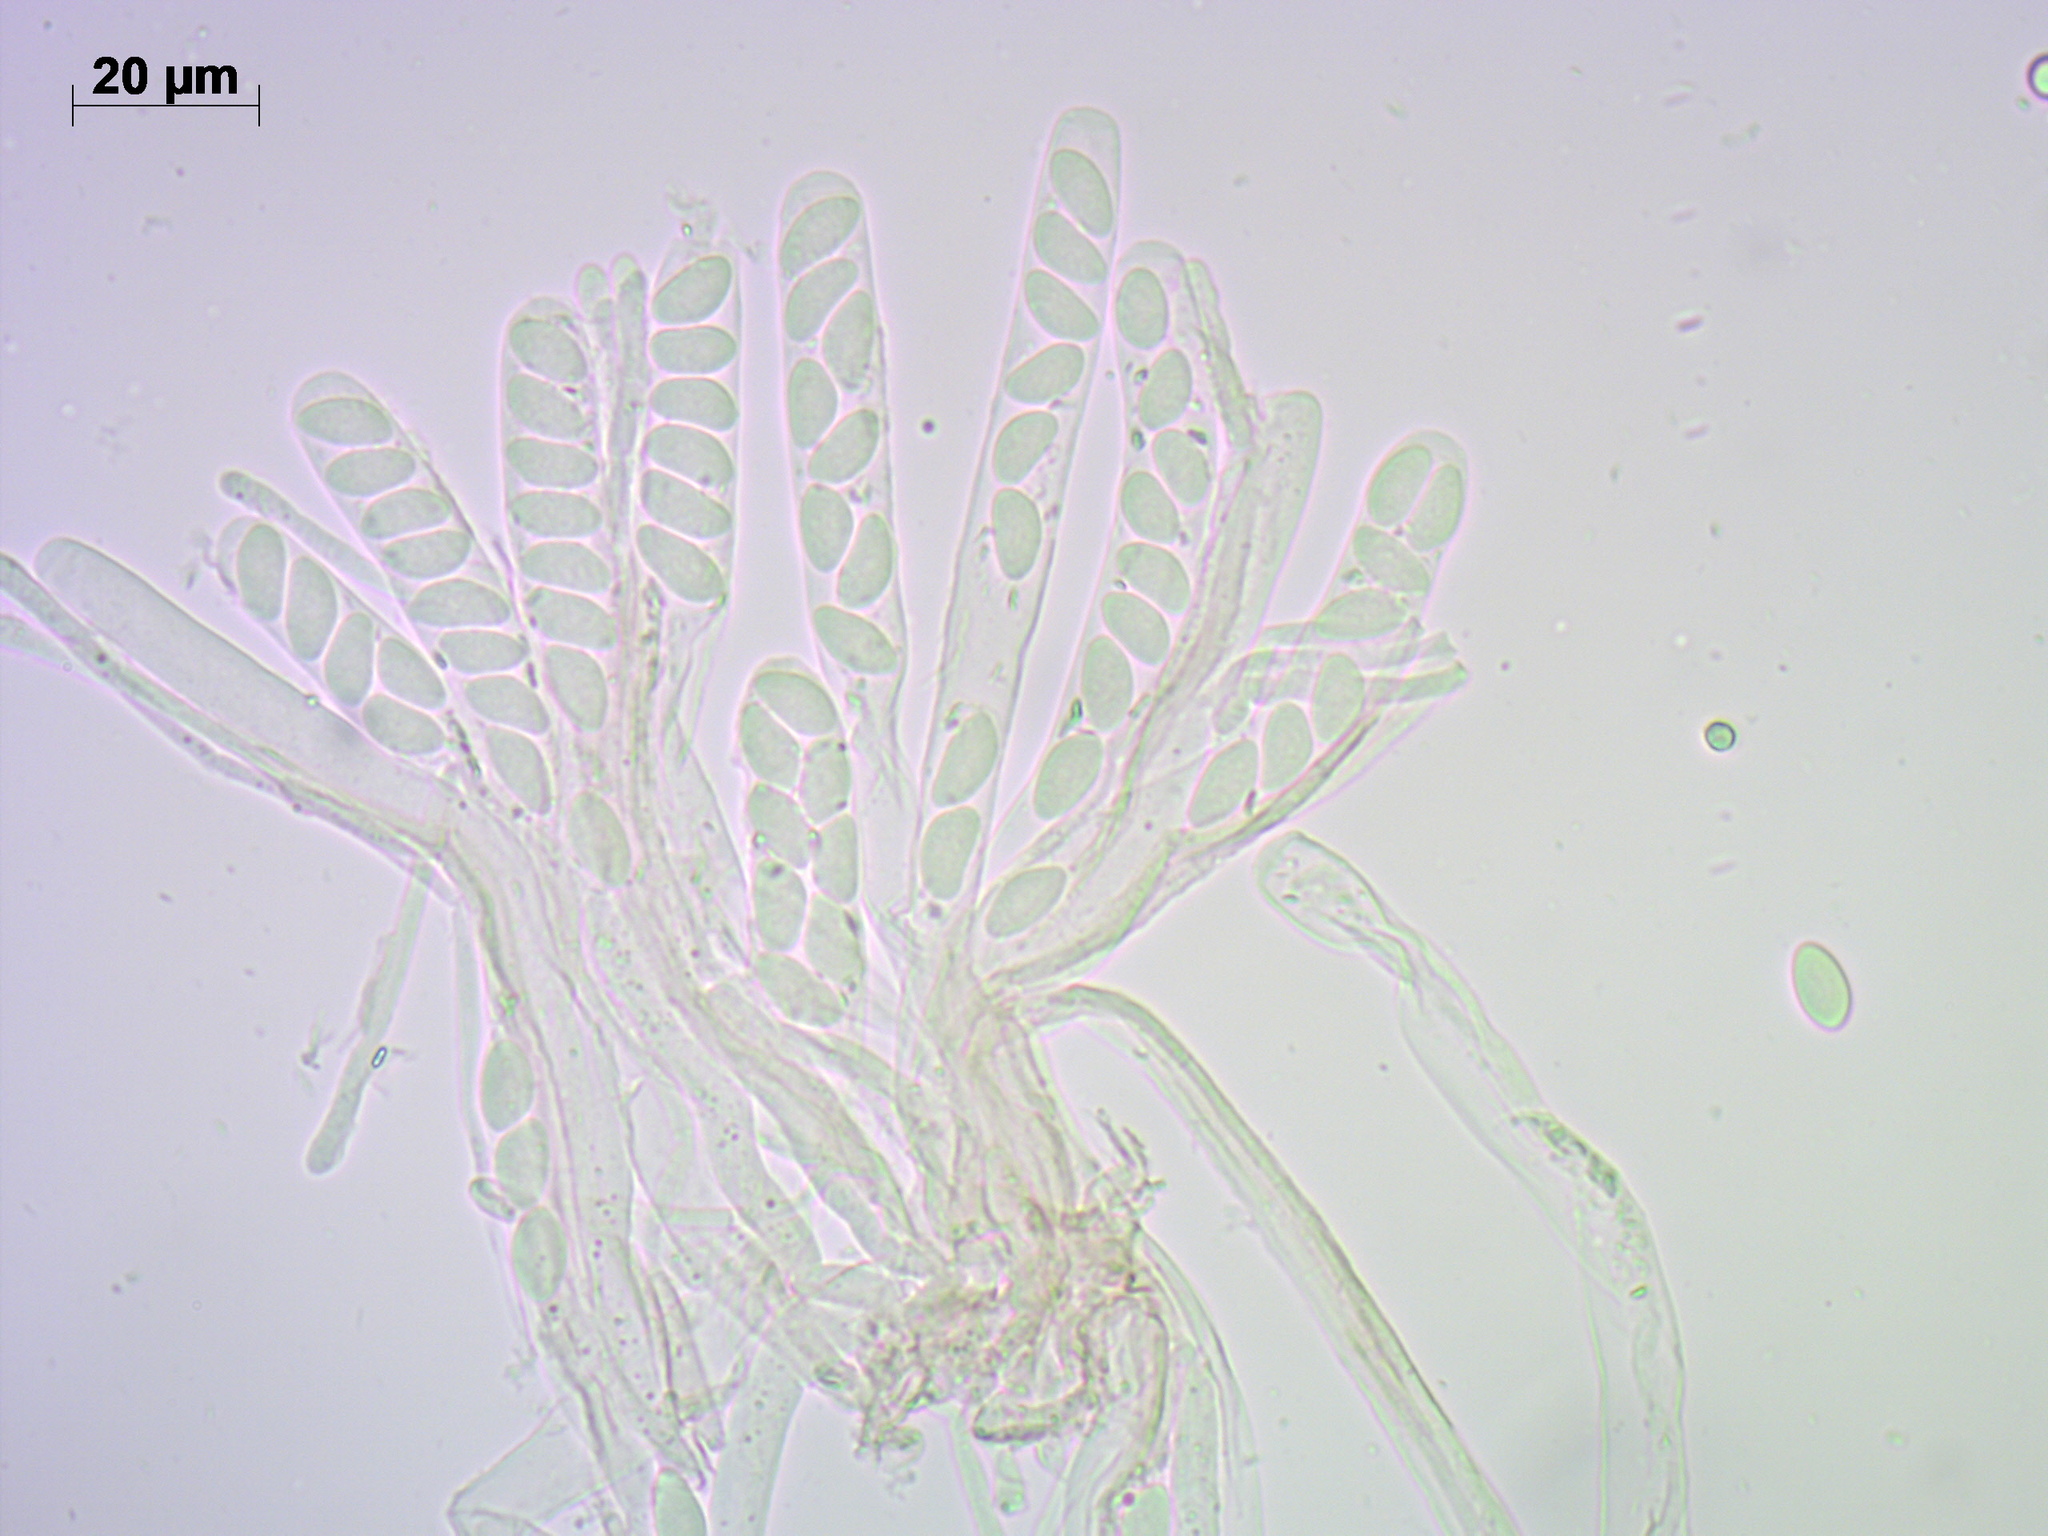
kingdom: Fungi
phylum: Ascomycota
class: Leotiomycetes
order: Helotiales
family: Sclerotiniaceae
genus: Ciboria
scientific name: Ciboria caucus
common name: Alder goblet
